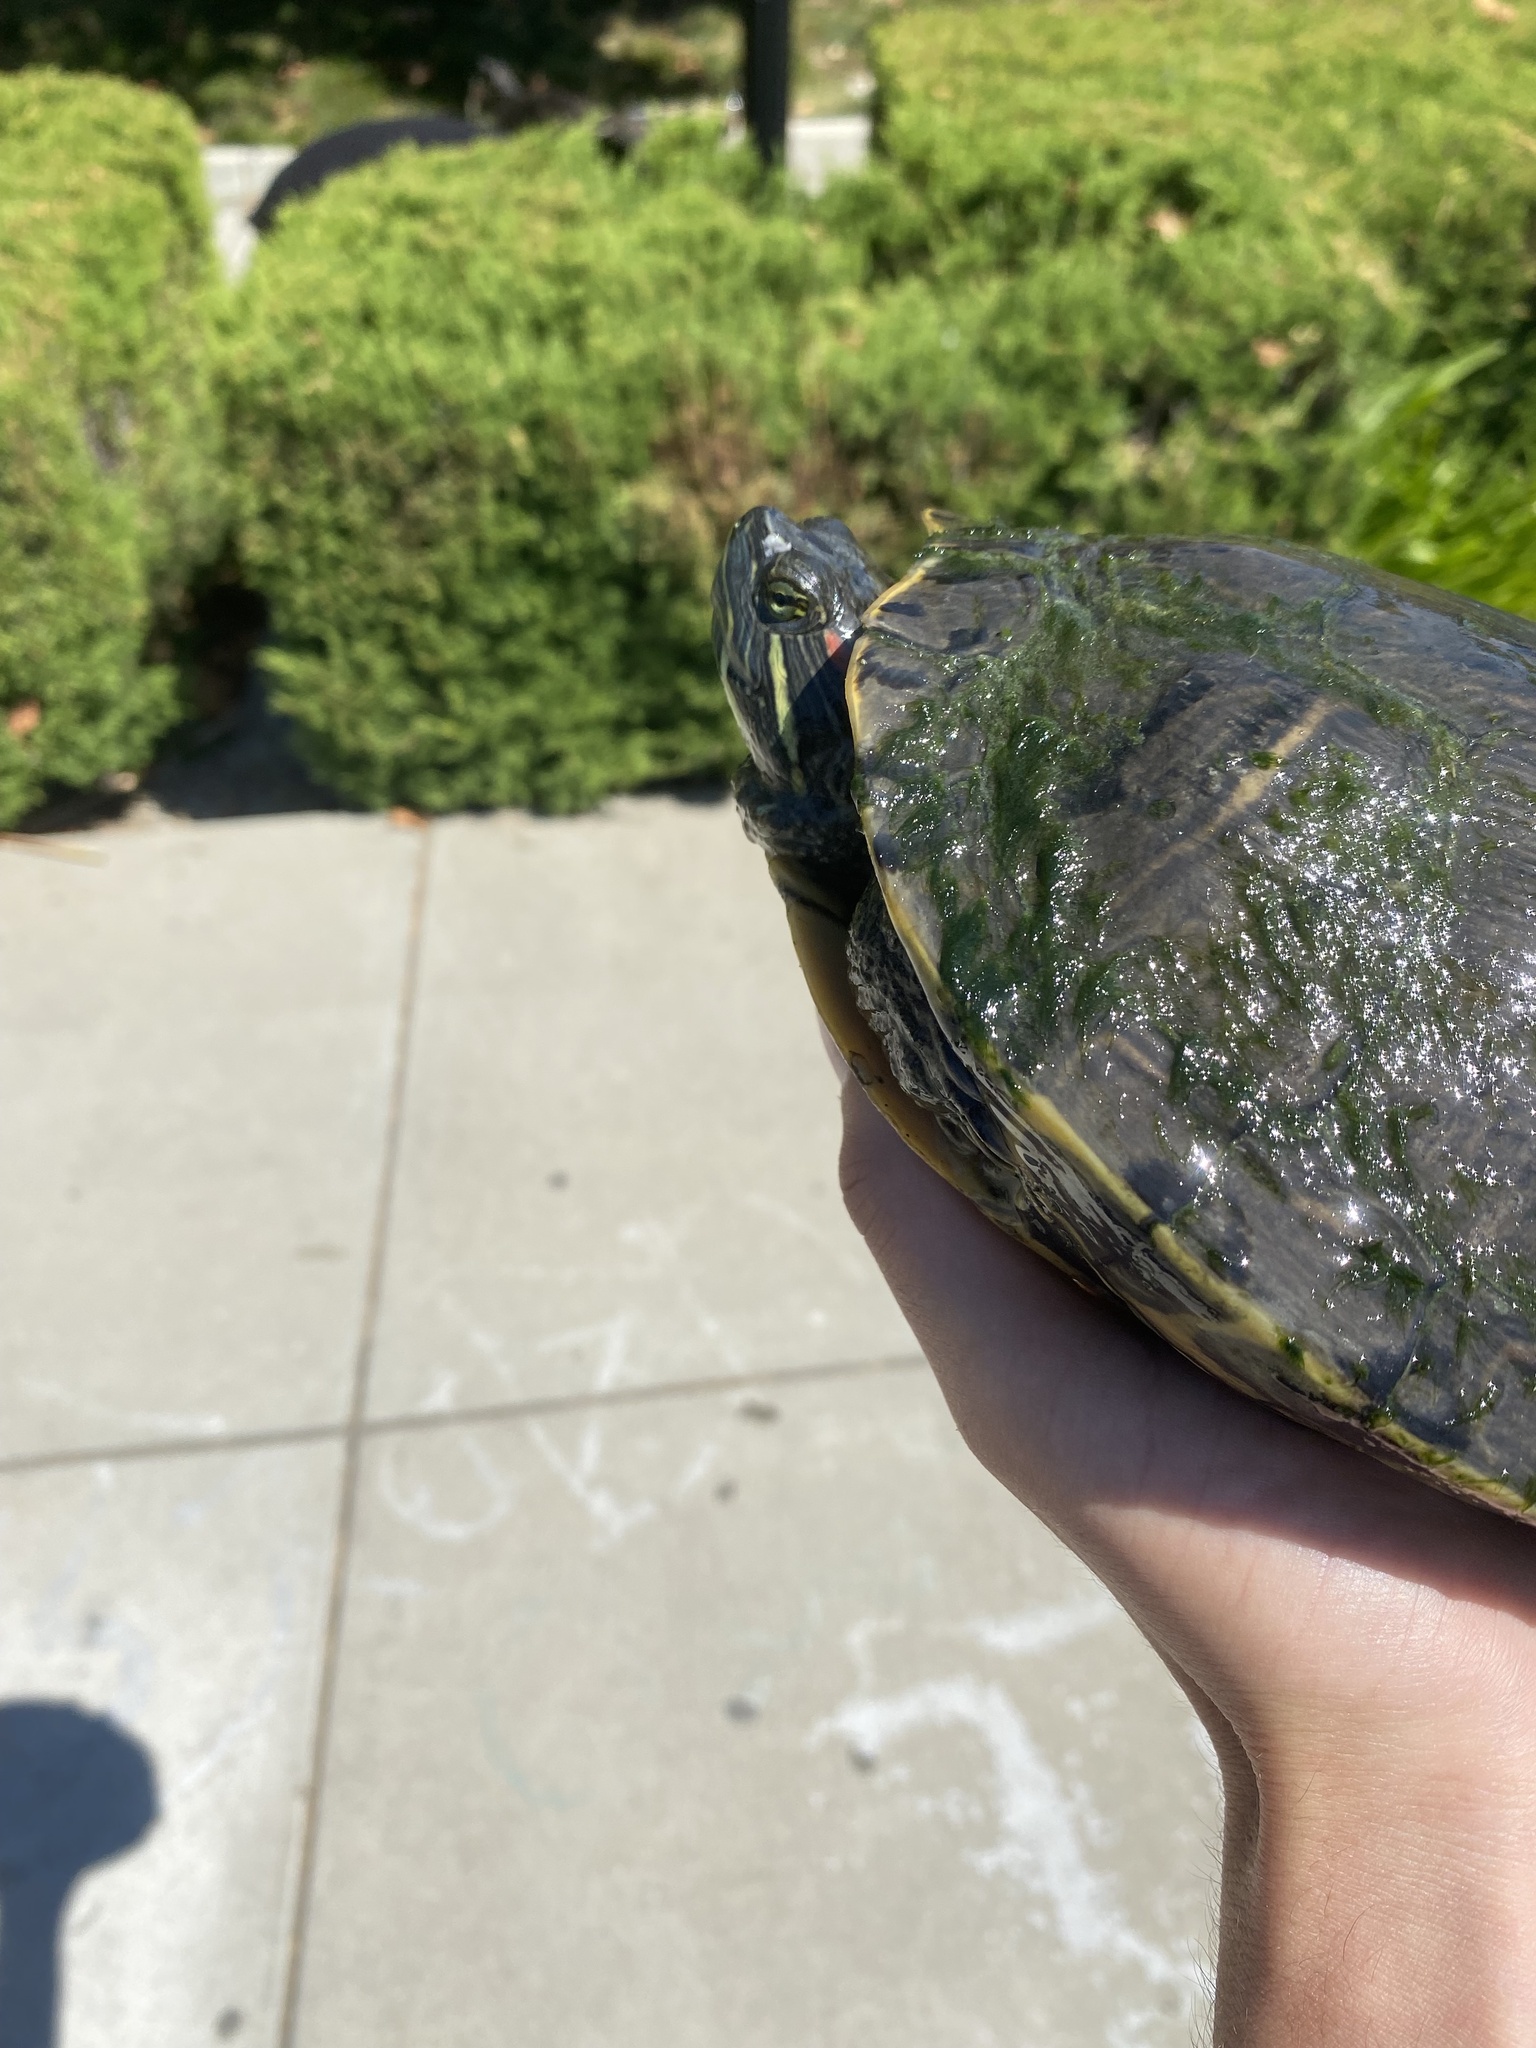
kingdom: Animalia
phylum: Chordata
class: Testudines
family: Emydidae
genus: Trachemys
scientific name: Trachemys scripta
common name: Slider
